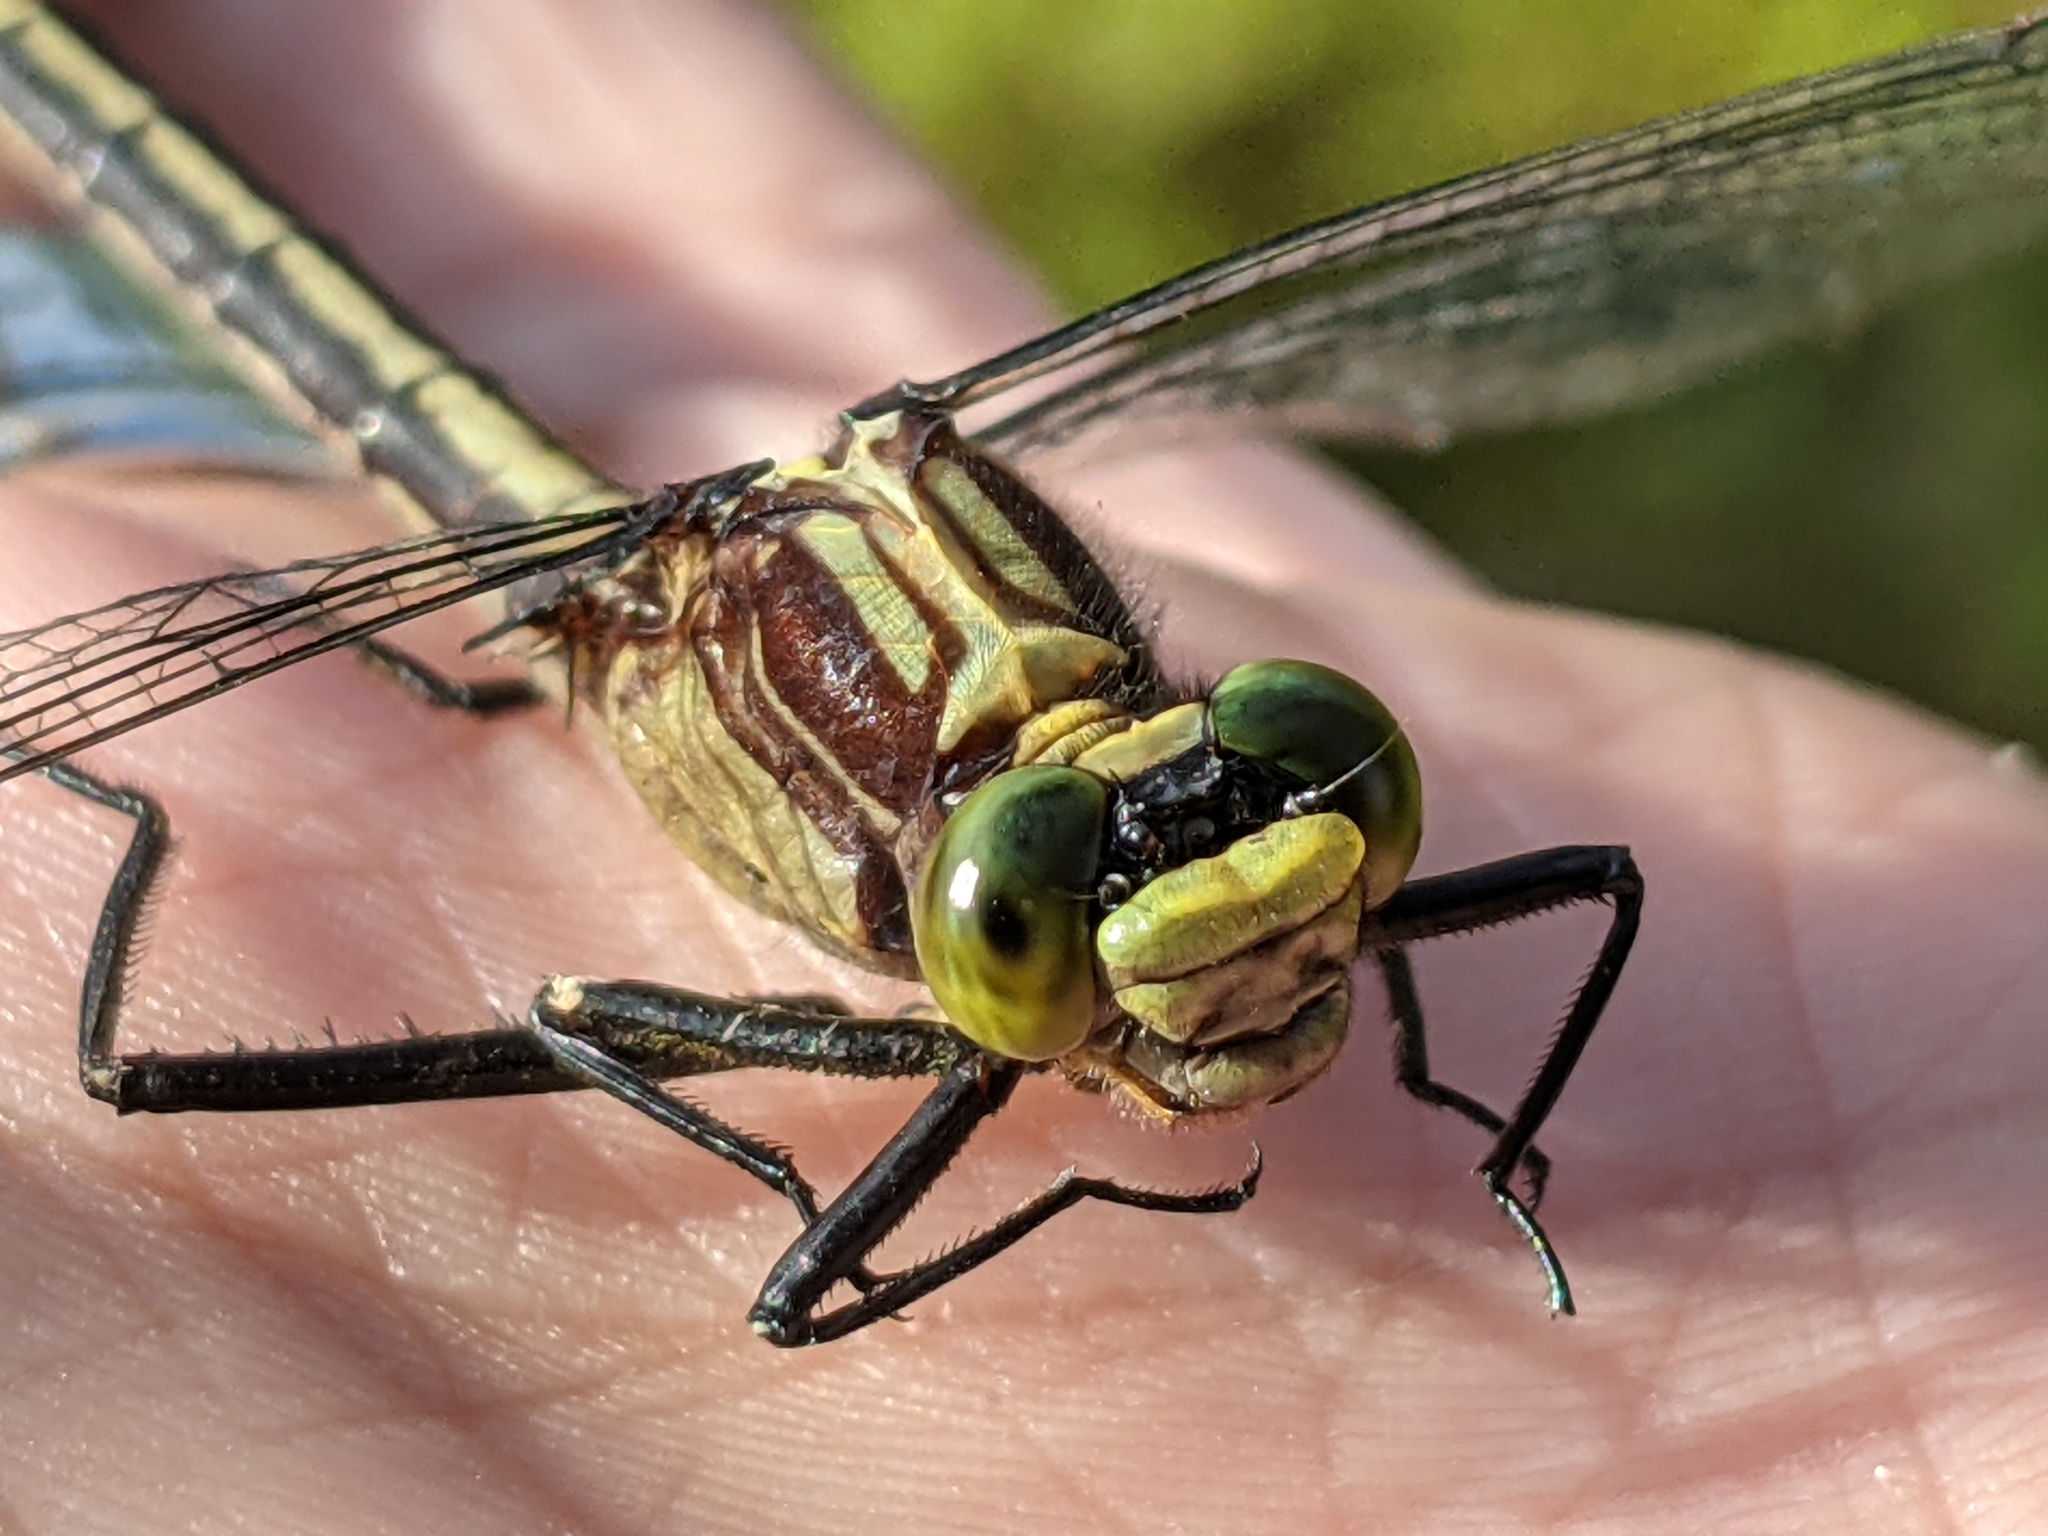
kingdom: Animalia
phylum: Arthropoda
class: Insecta
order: Odonata
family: Gomphidae
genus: Dromogomphus
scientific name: Dromogomphus spinosus
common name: Black-shouldered spinyleg
